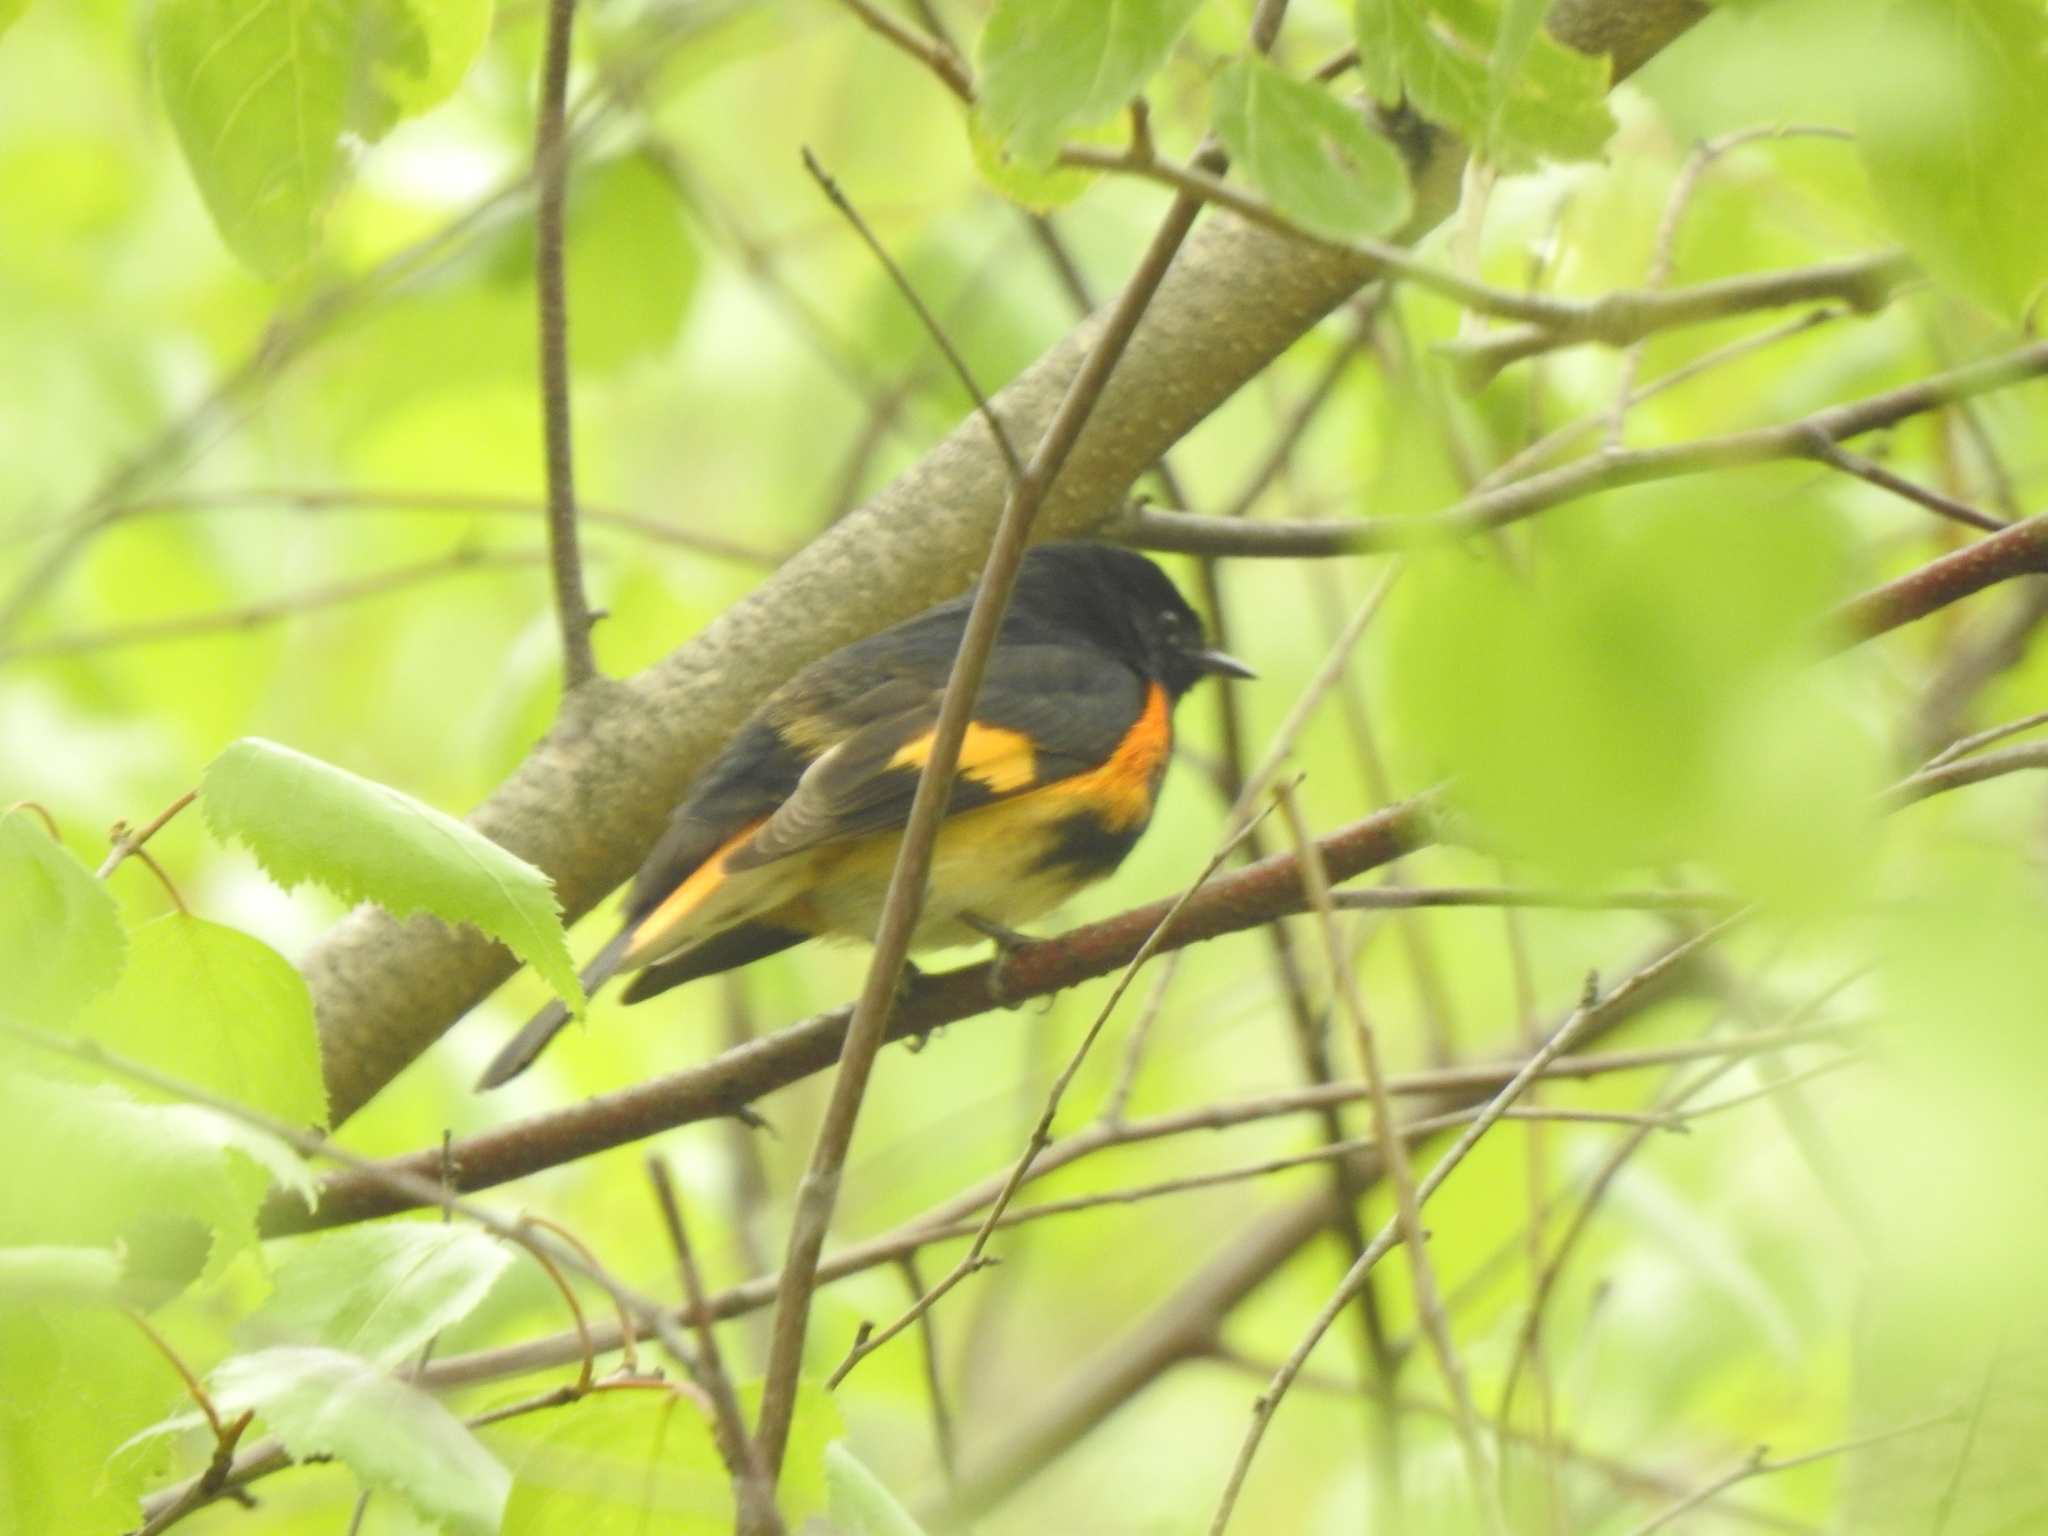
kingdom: Animalia
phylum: Chordata
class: Aves
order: Passeriformes
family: Parulidae
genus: Setophaga
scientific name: Setophaga ruticilla
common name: American redstart
